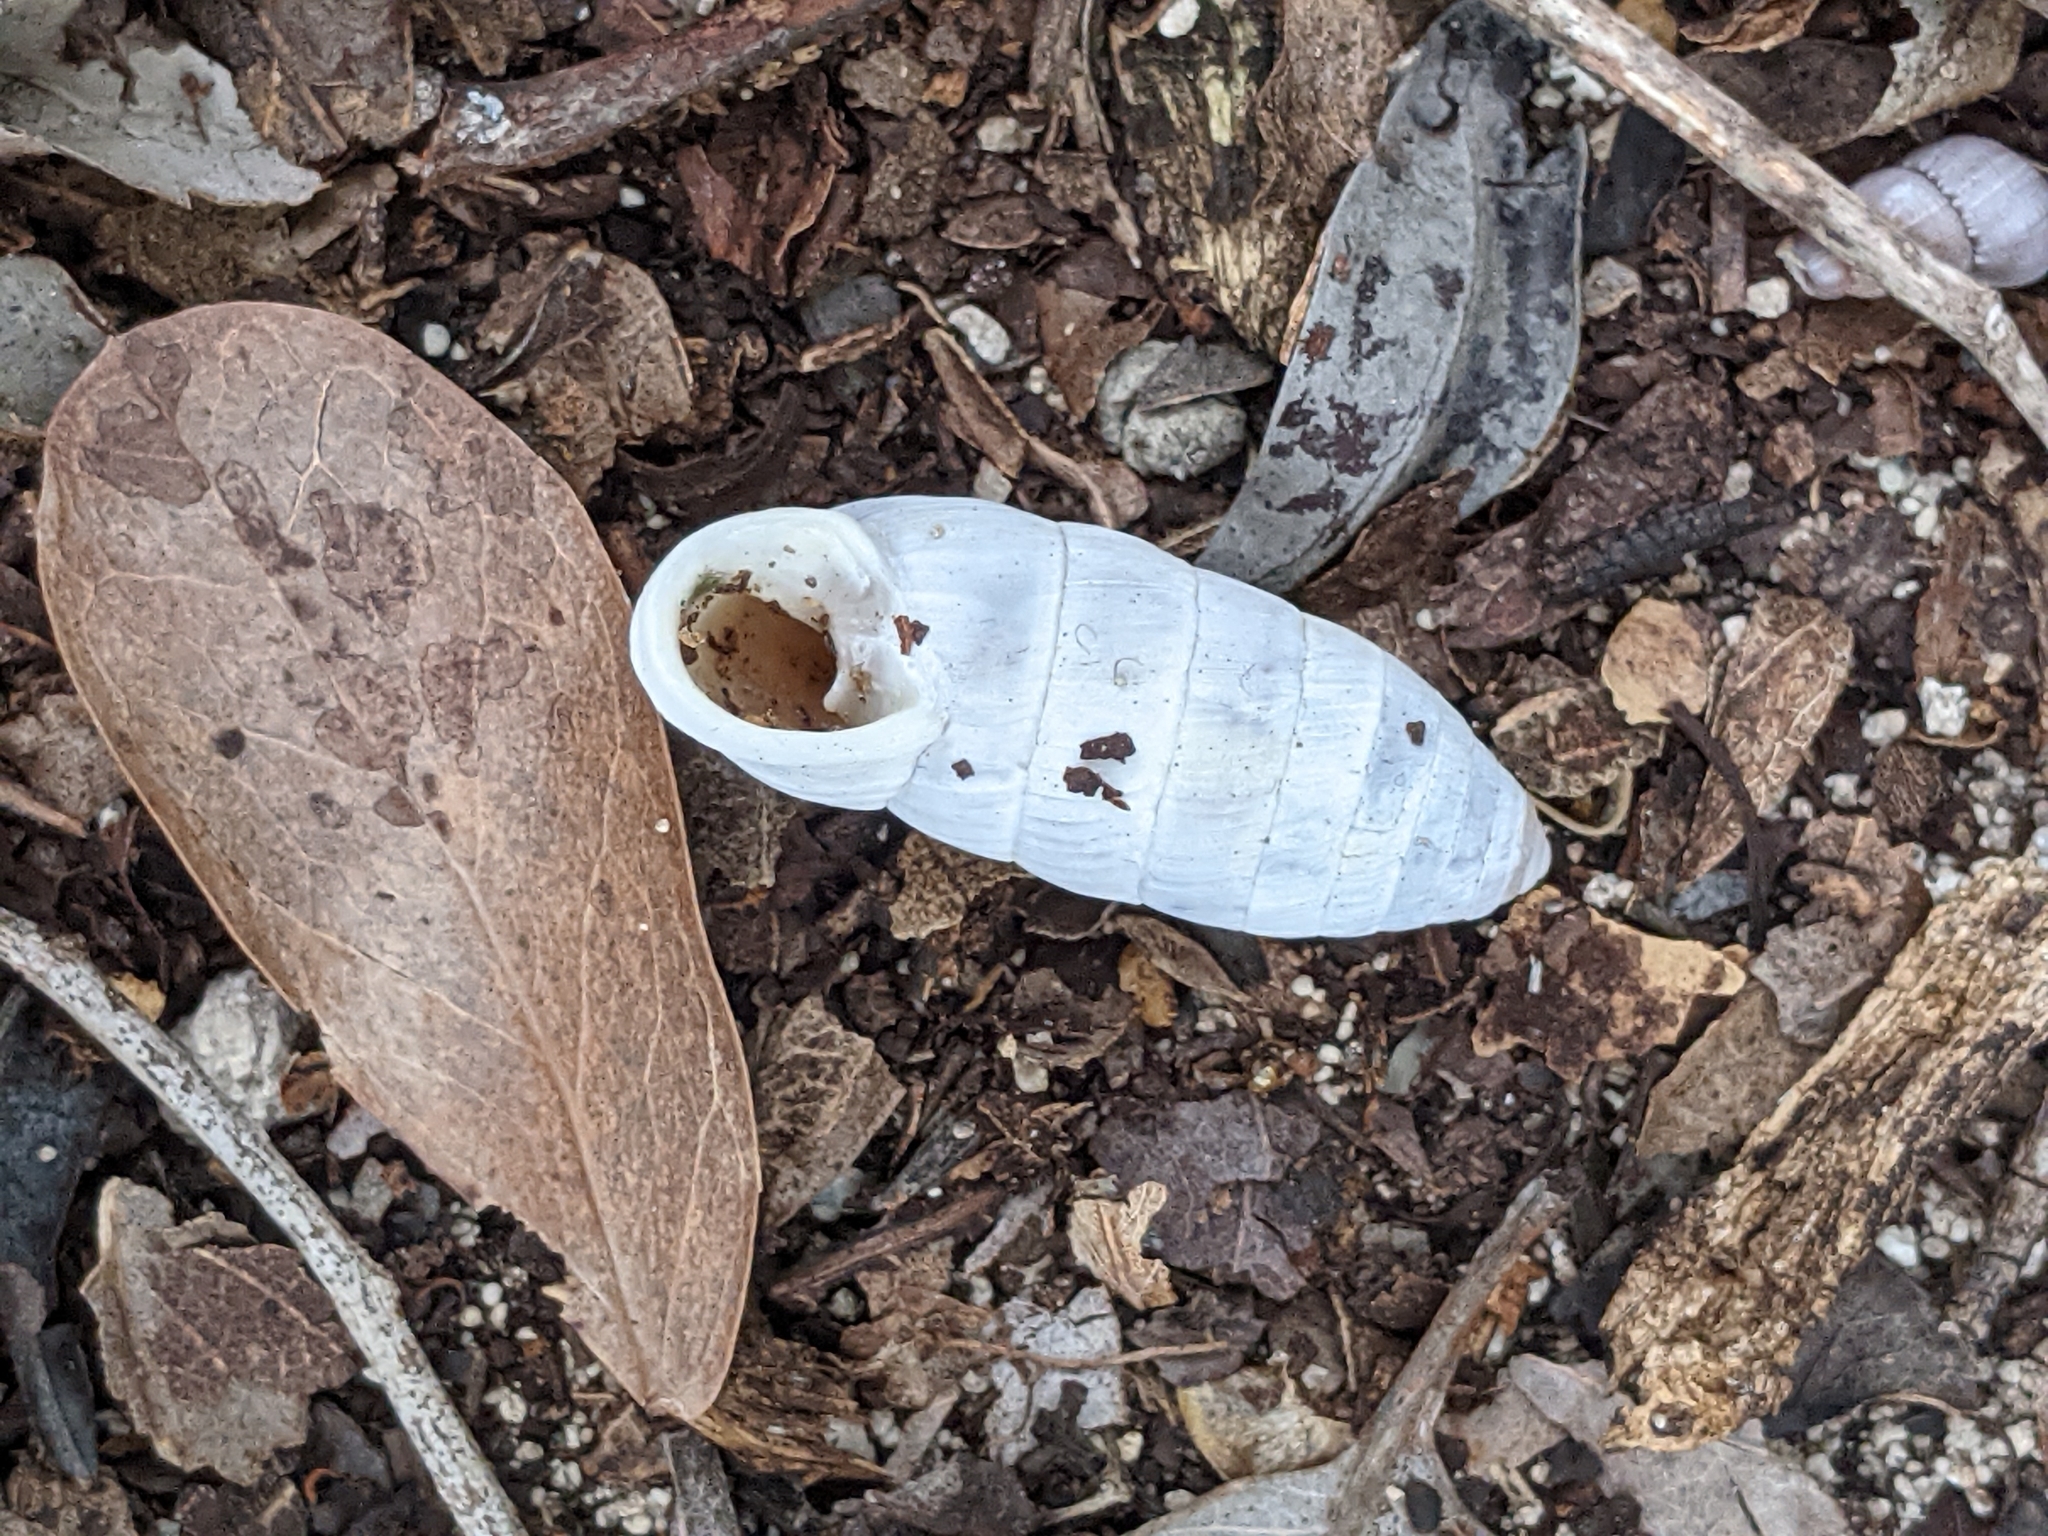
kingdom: Animalia
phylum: Mollusca
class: Gastropoda
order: Stylommatophora
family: Cerionidae
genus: Cerion
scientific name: Cerion incanum
